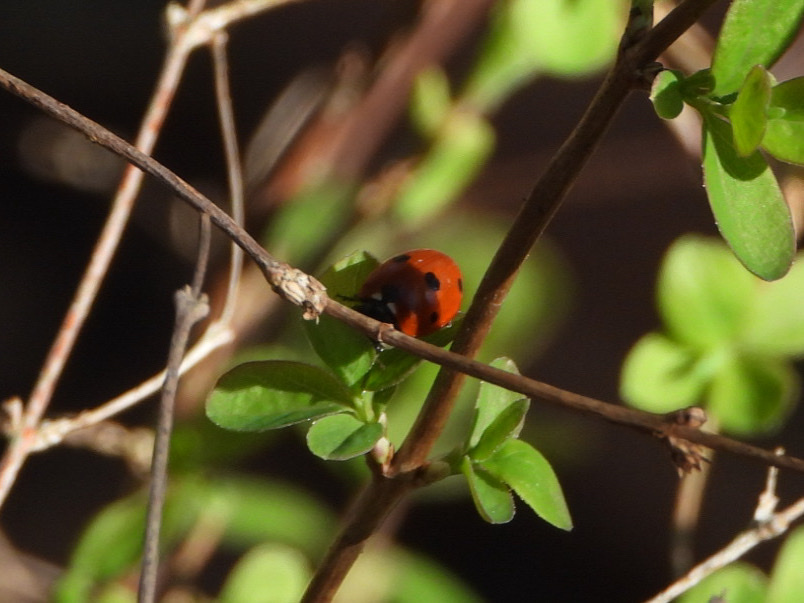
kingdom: Animalia
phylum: Arthropoda
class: Insecta
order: Coleoptera
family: Coccinellidae
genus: Coccinella
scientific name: Coccinella septempunctata
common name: Sevenspotted lady beetle
